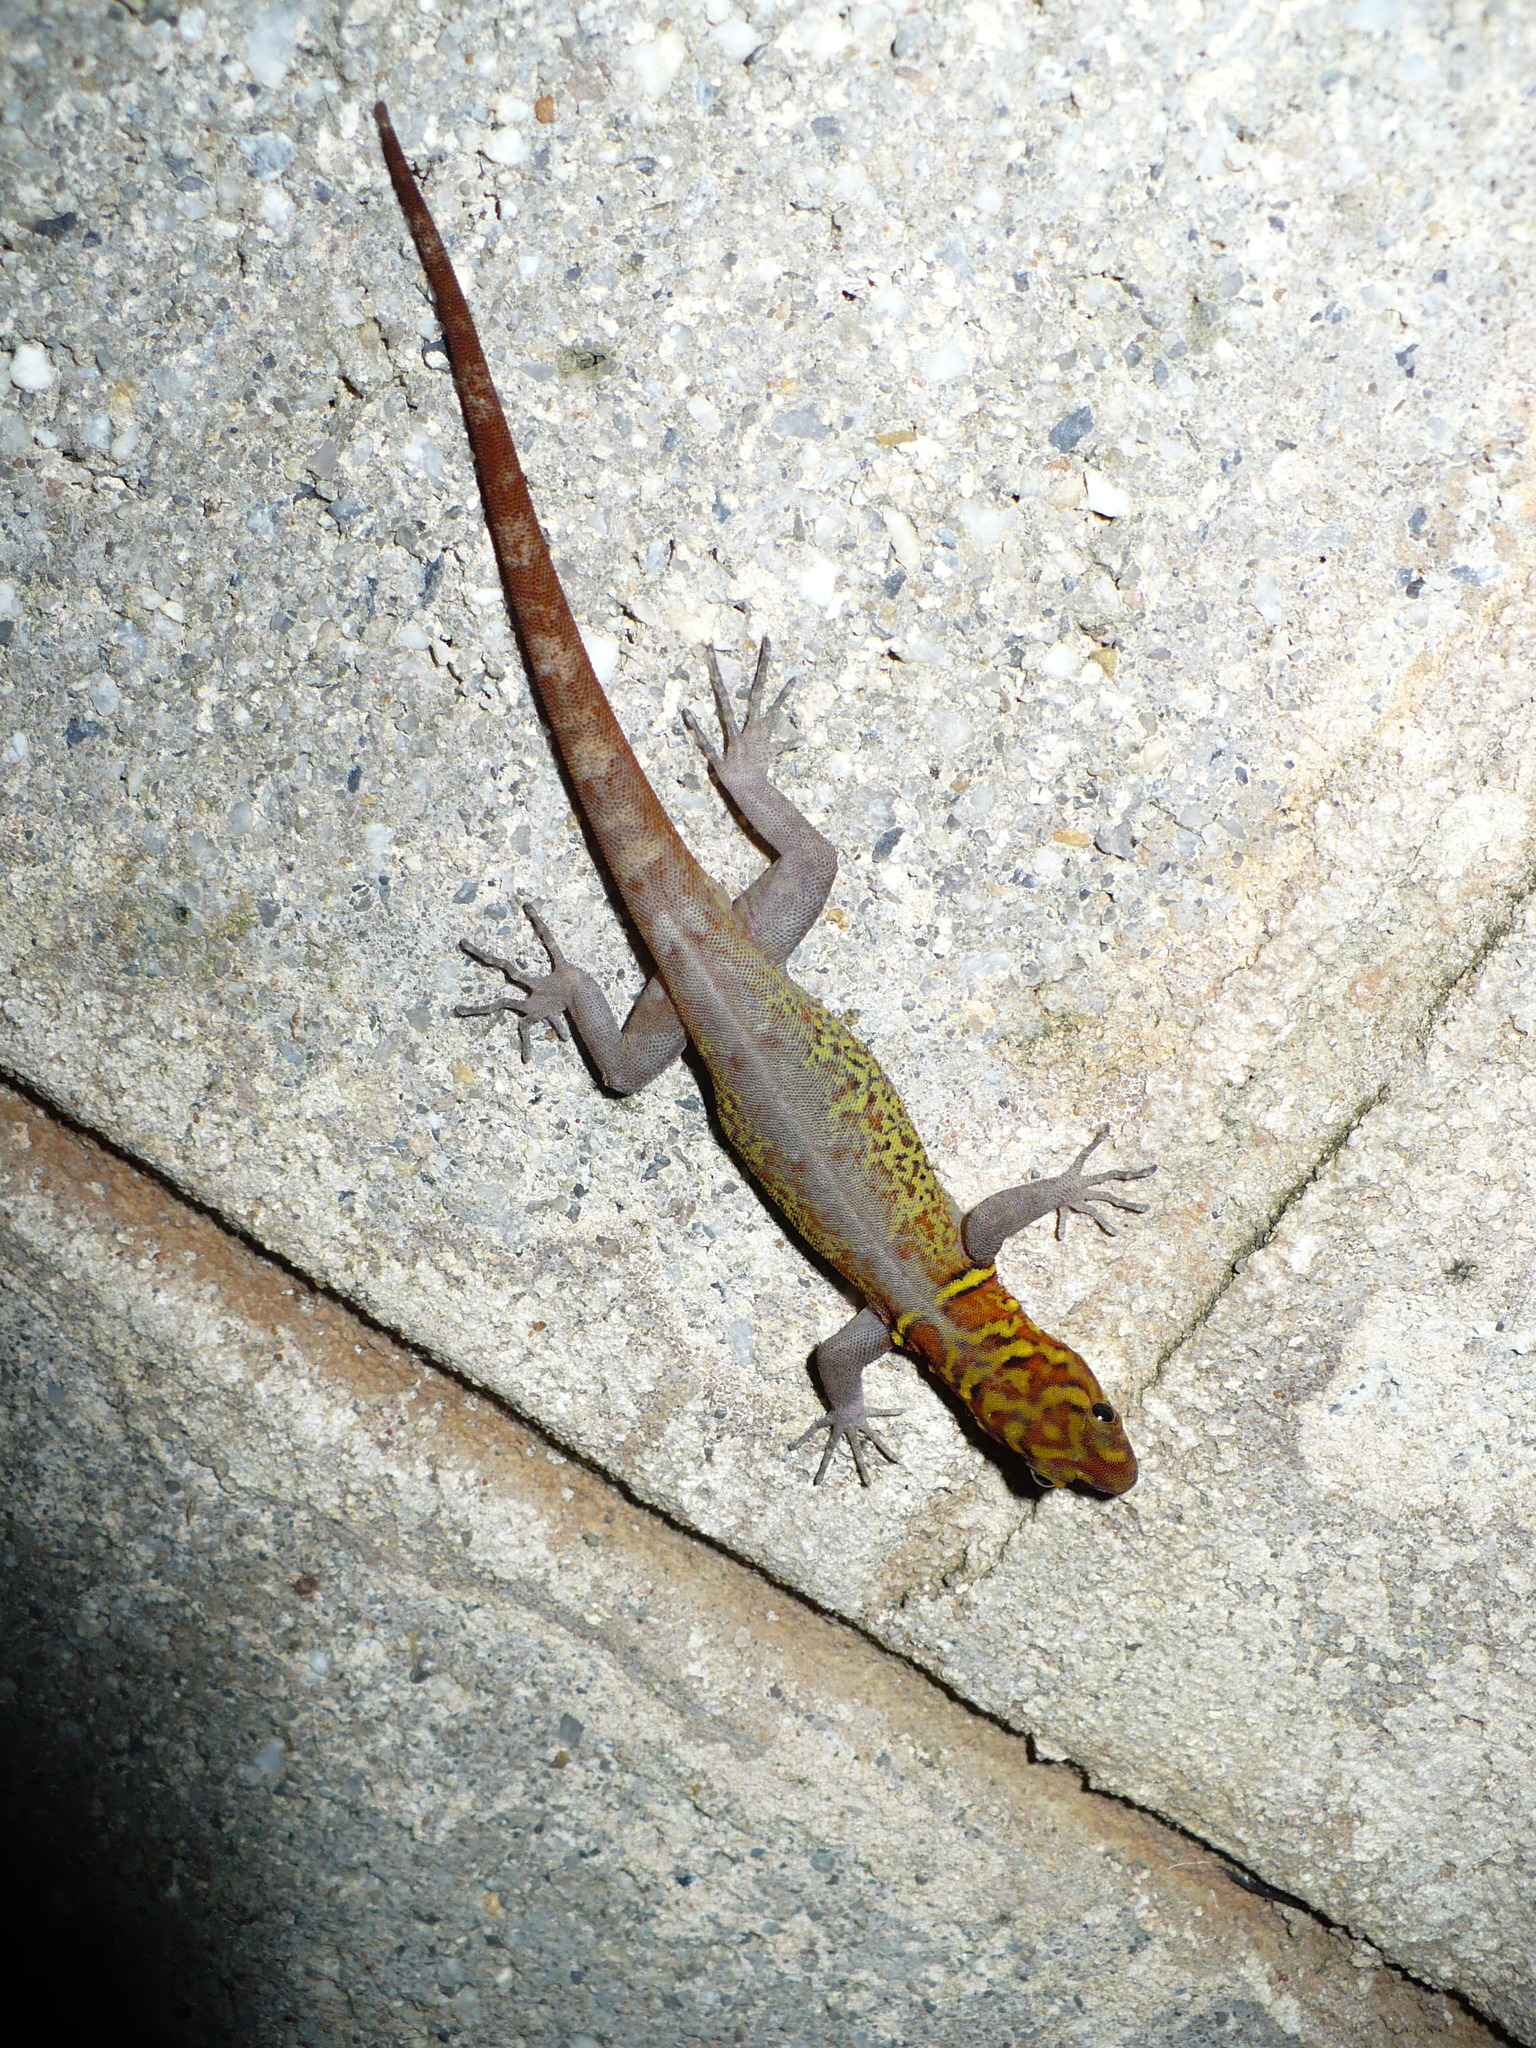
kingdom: Animalia
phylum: Chordata
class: Squamata
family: Sphaerodactylidae
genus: Gonatodes
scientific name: Gonatodes ceciliae
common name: Brilliant south american gecko
